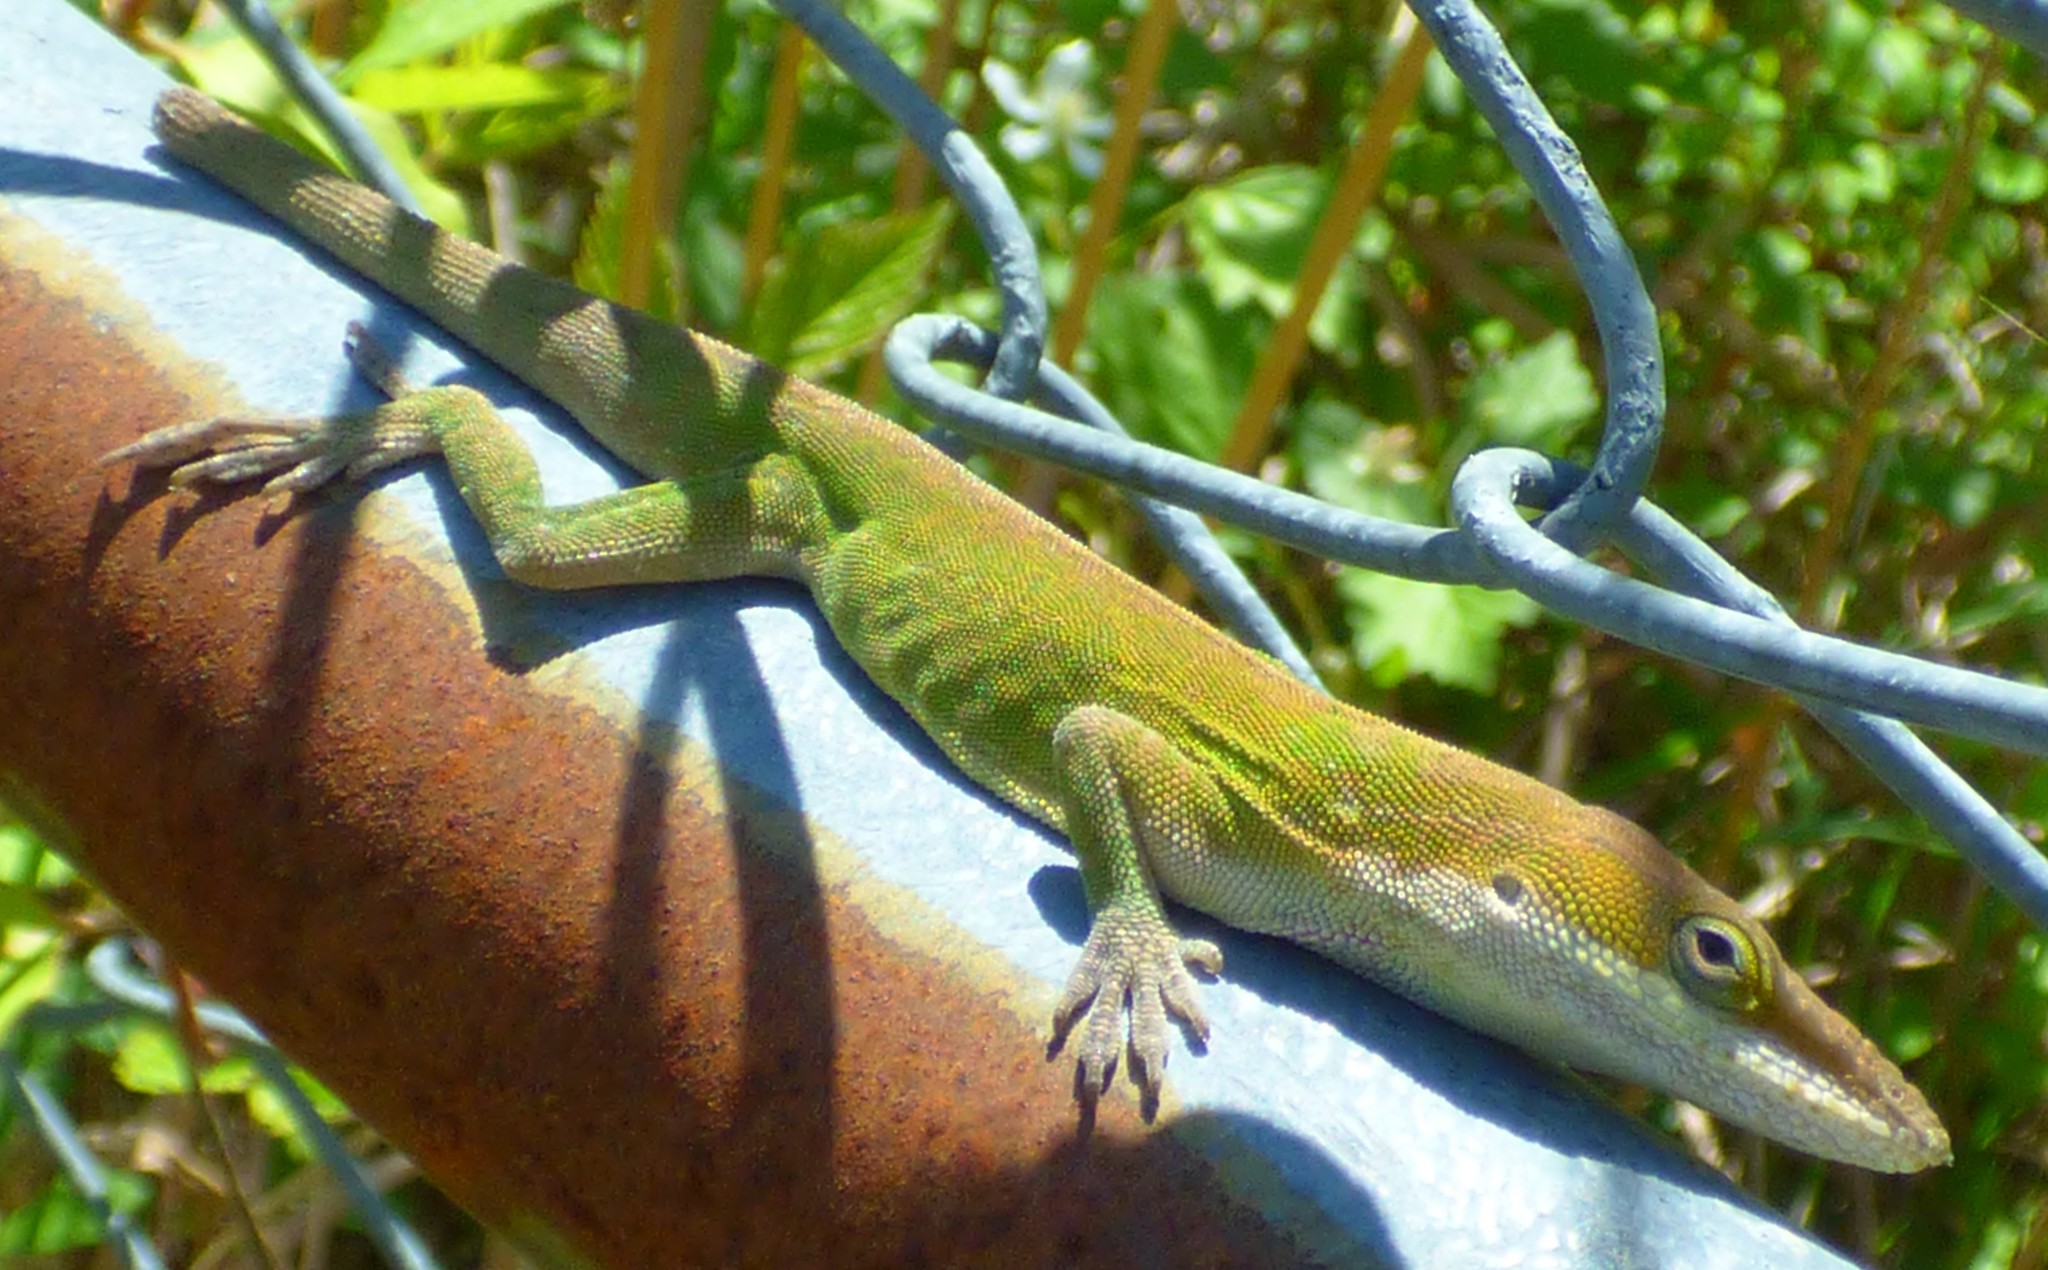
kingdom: Animalia
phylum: Chordata
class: Squamata
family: Dactyloidae
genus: Anolis
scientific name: Anolis carolinensis
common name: Green anole
